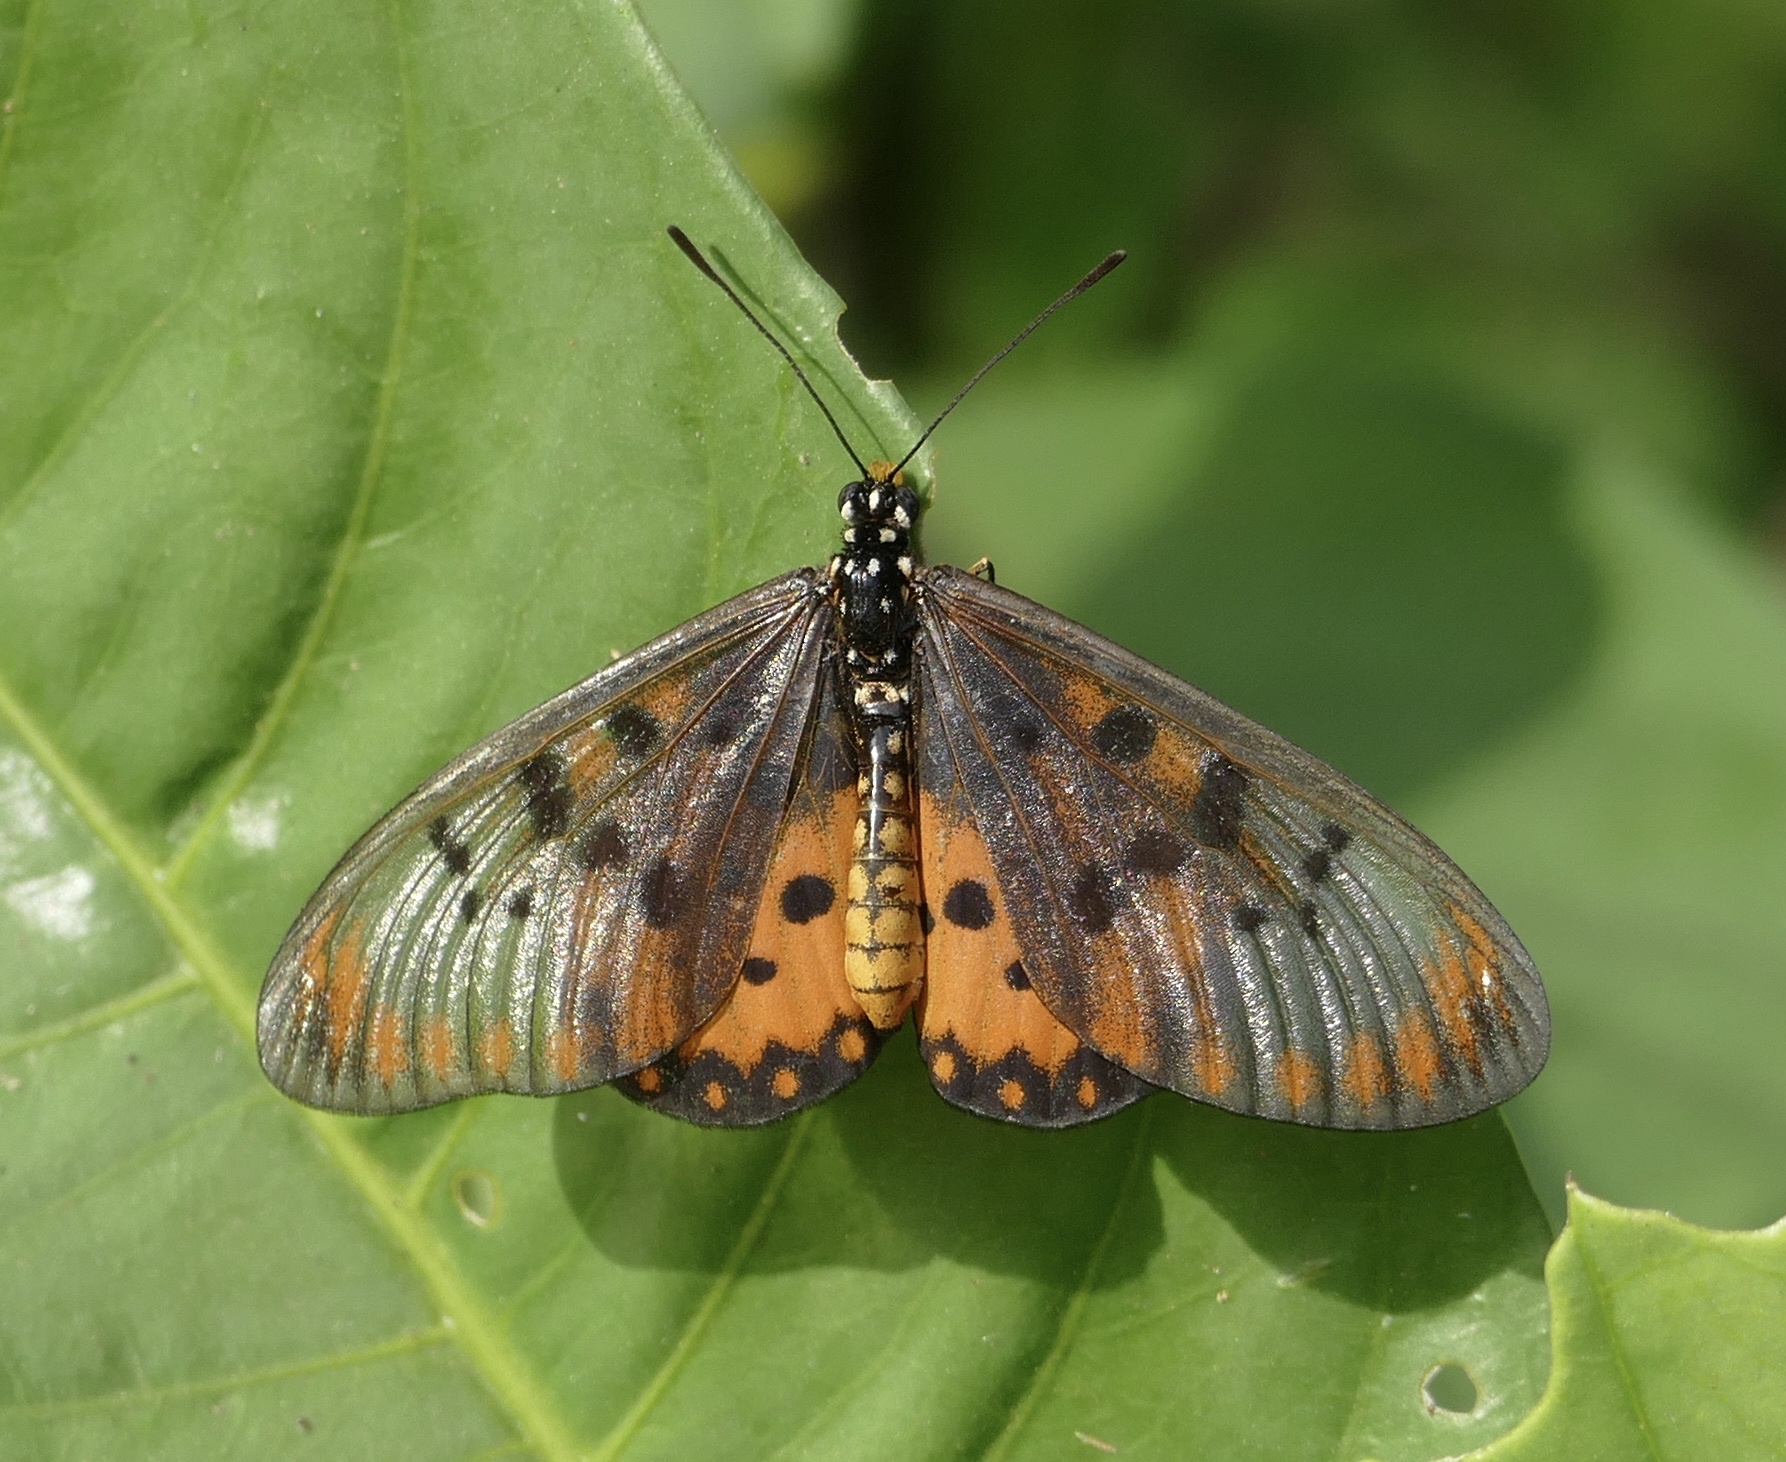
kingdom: Animalia
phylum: Arthropoda
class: Insecta
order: Lepidoptera
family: Nymphalidae
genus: Acraea
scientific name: Acraea neobule
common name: Dancing acraea
